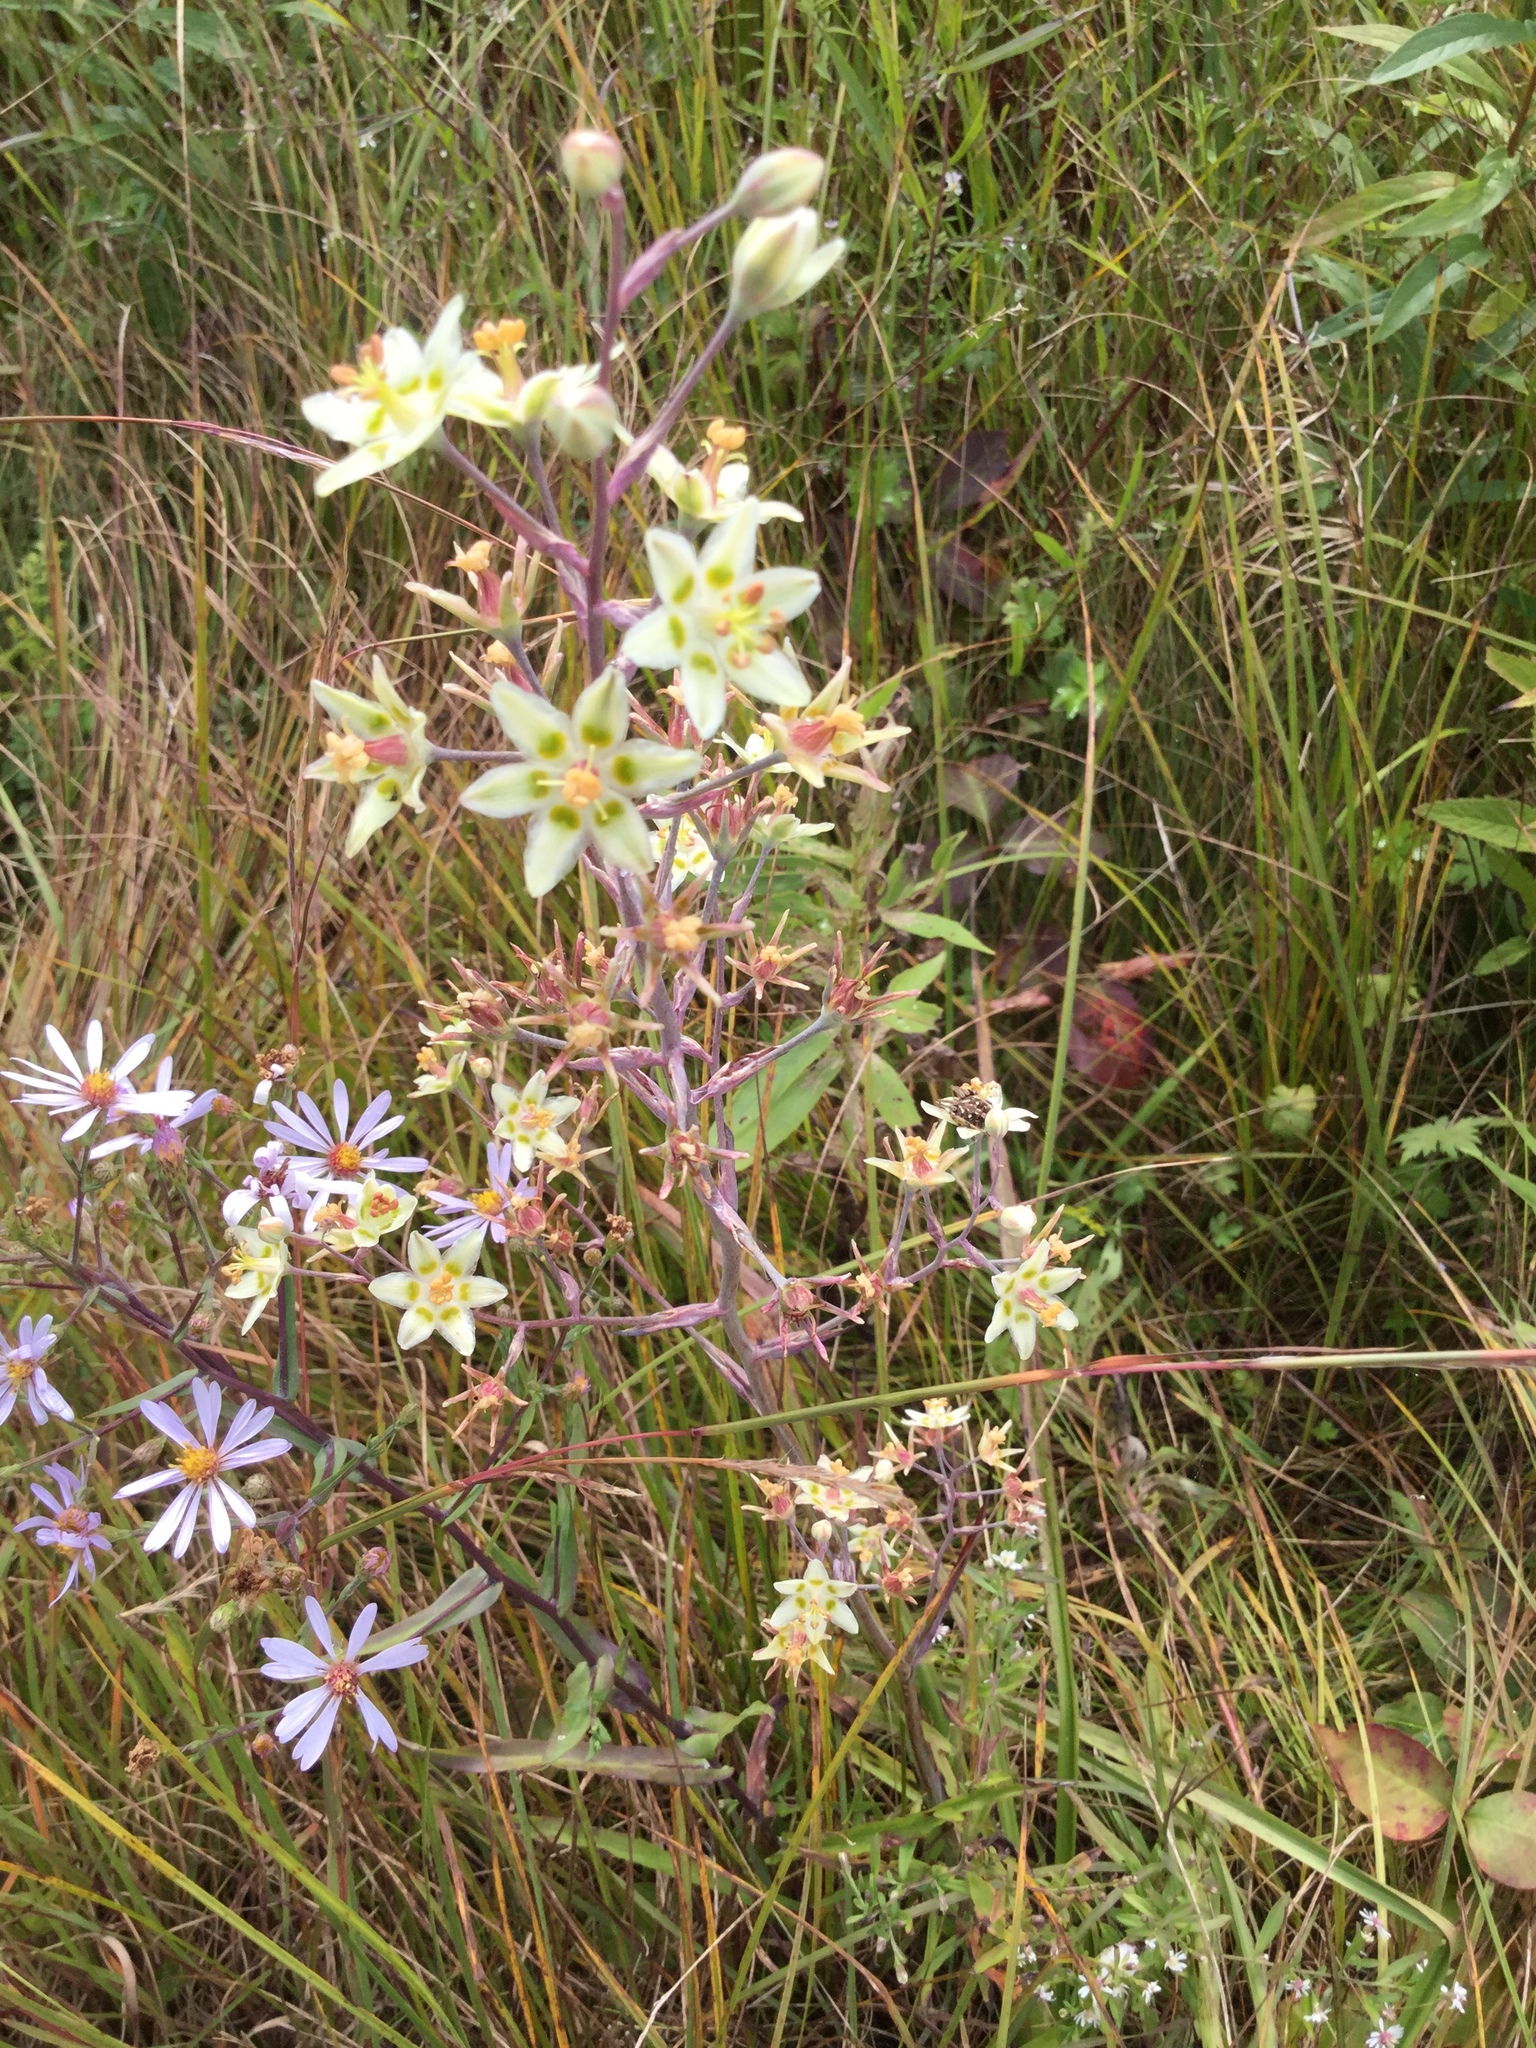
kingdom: Plantae
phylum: Tracheophyta
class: Liliopsida
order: Liliales
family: Melanthiaceae
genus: Anticlea
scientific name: Anticlea elegans
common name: Mountain death camas
